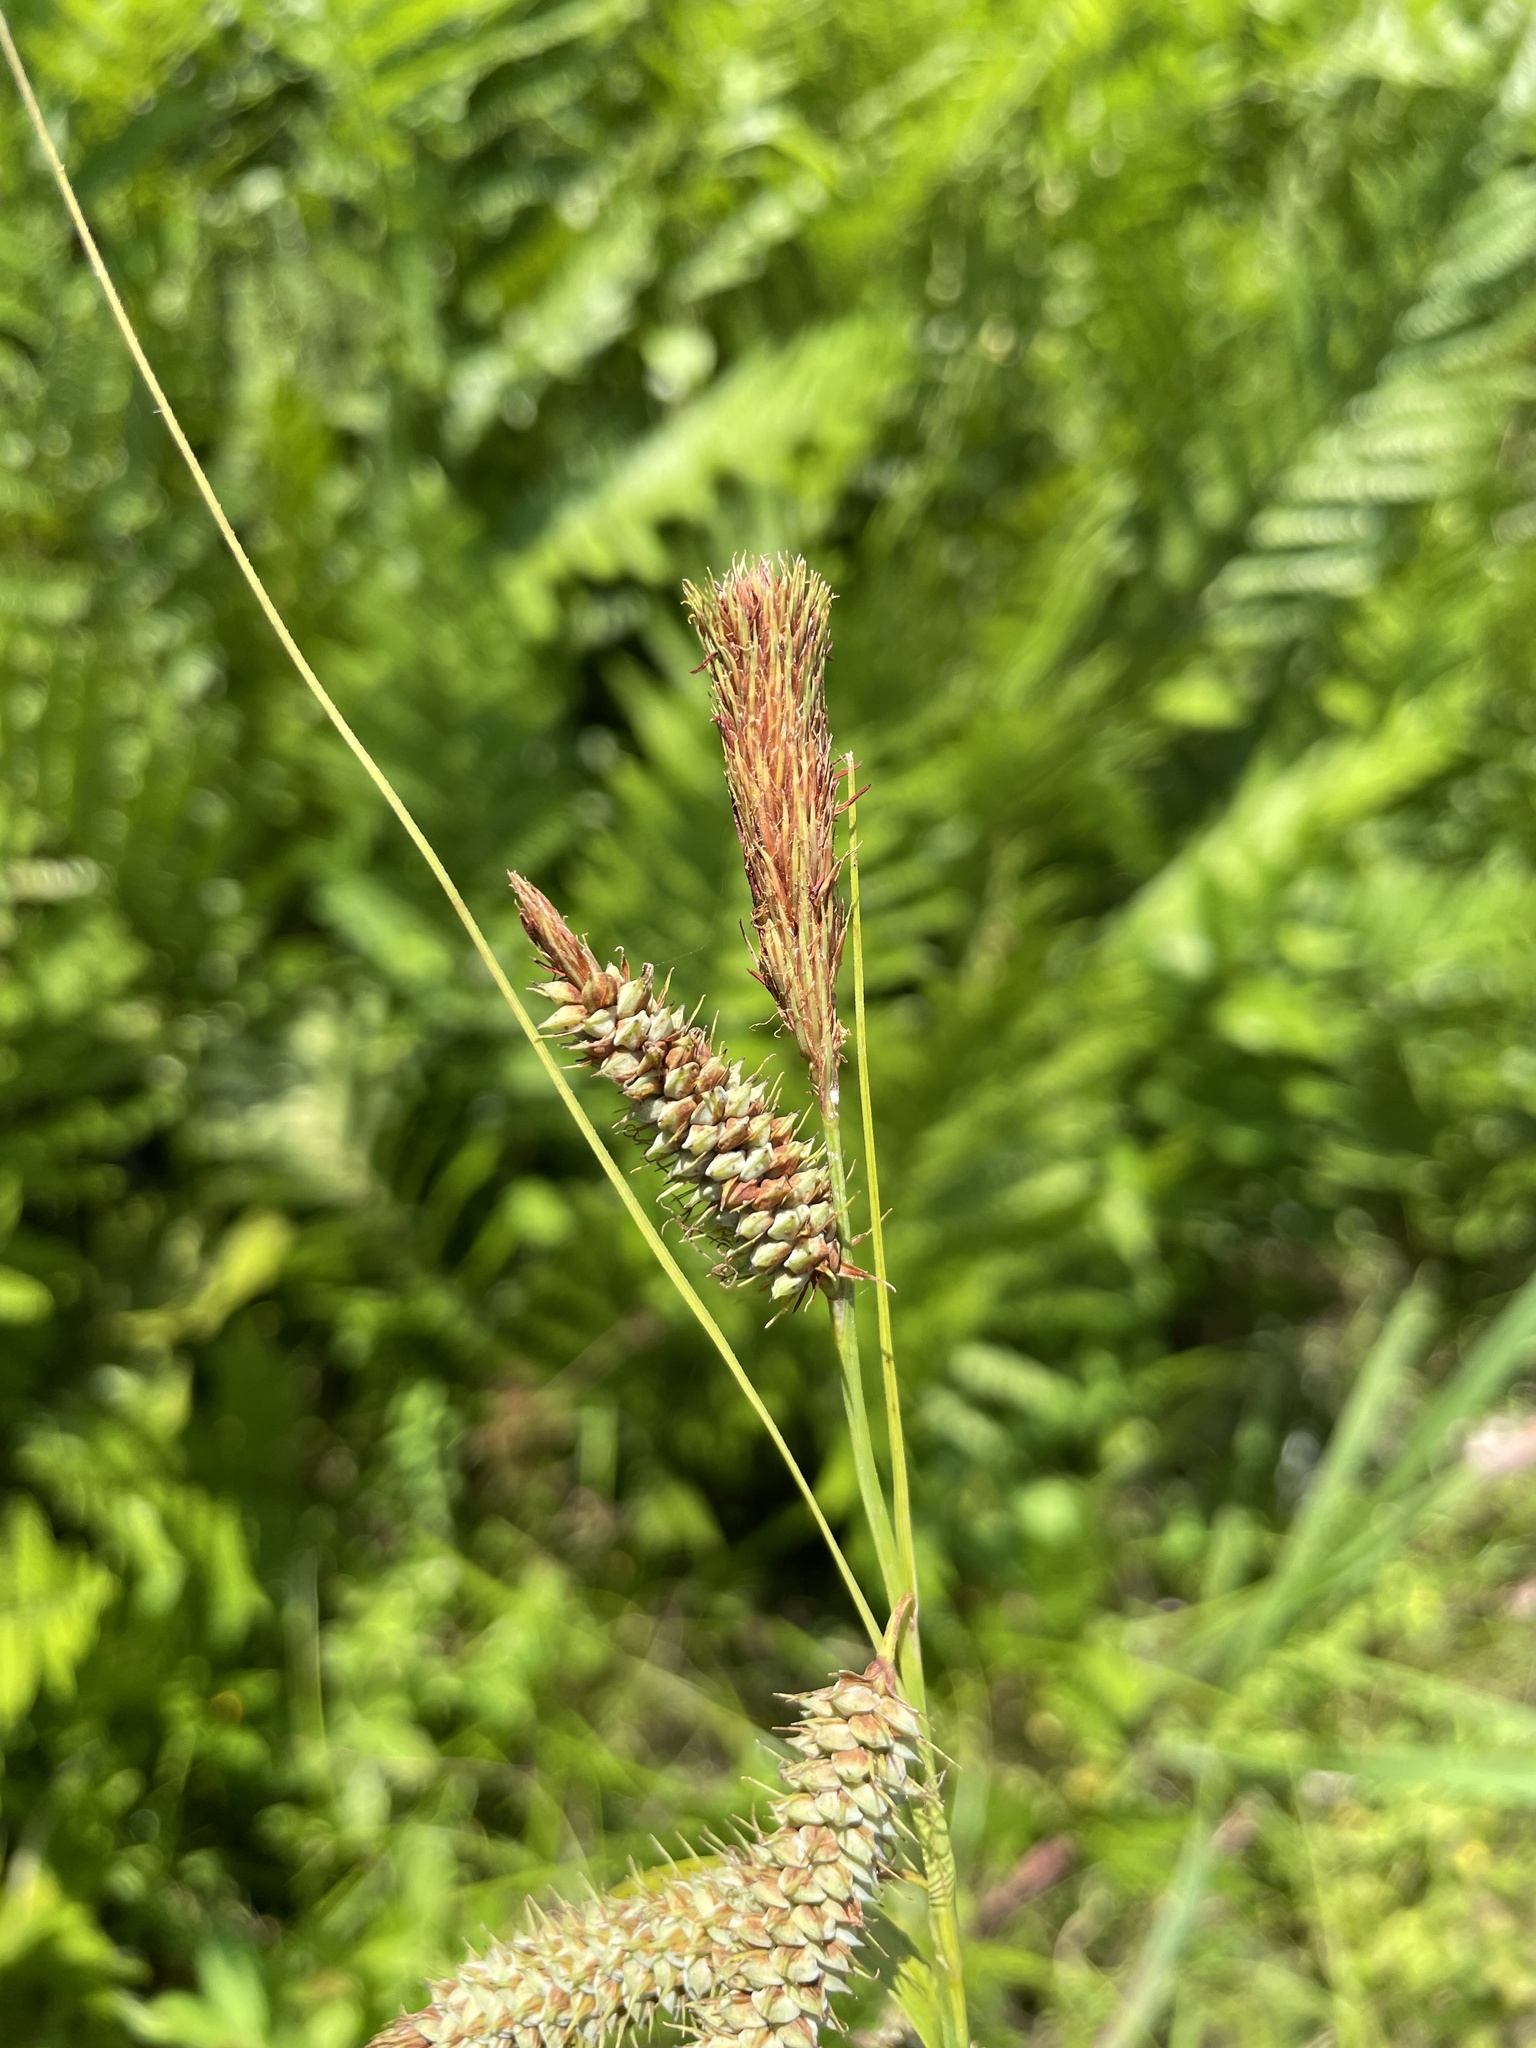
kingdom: Plantae
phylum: Tracheophyta
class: Liliopsida
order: Poales
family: Cyperaceae
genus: Carex
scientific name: Carex glaucescens
